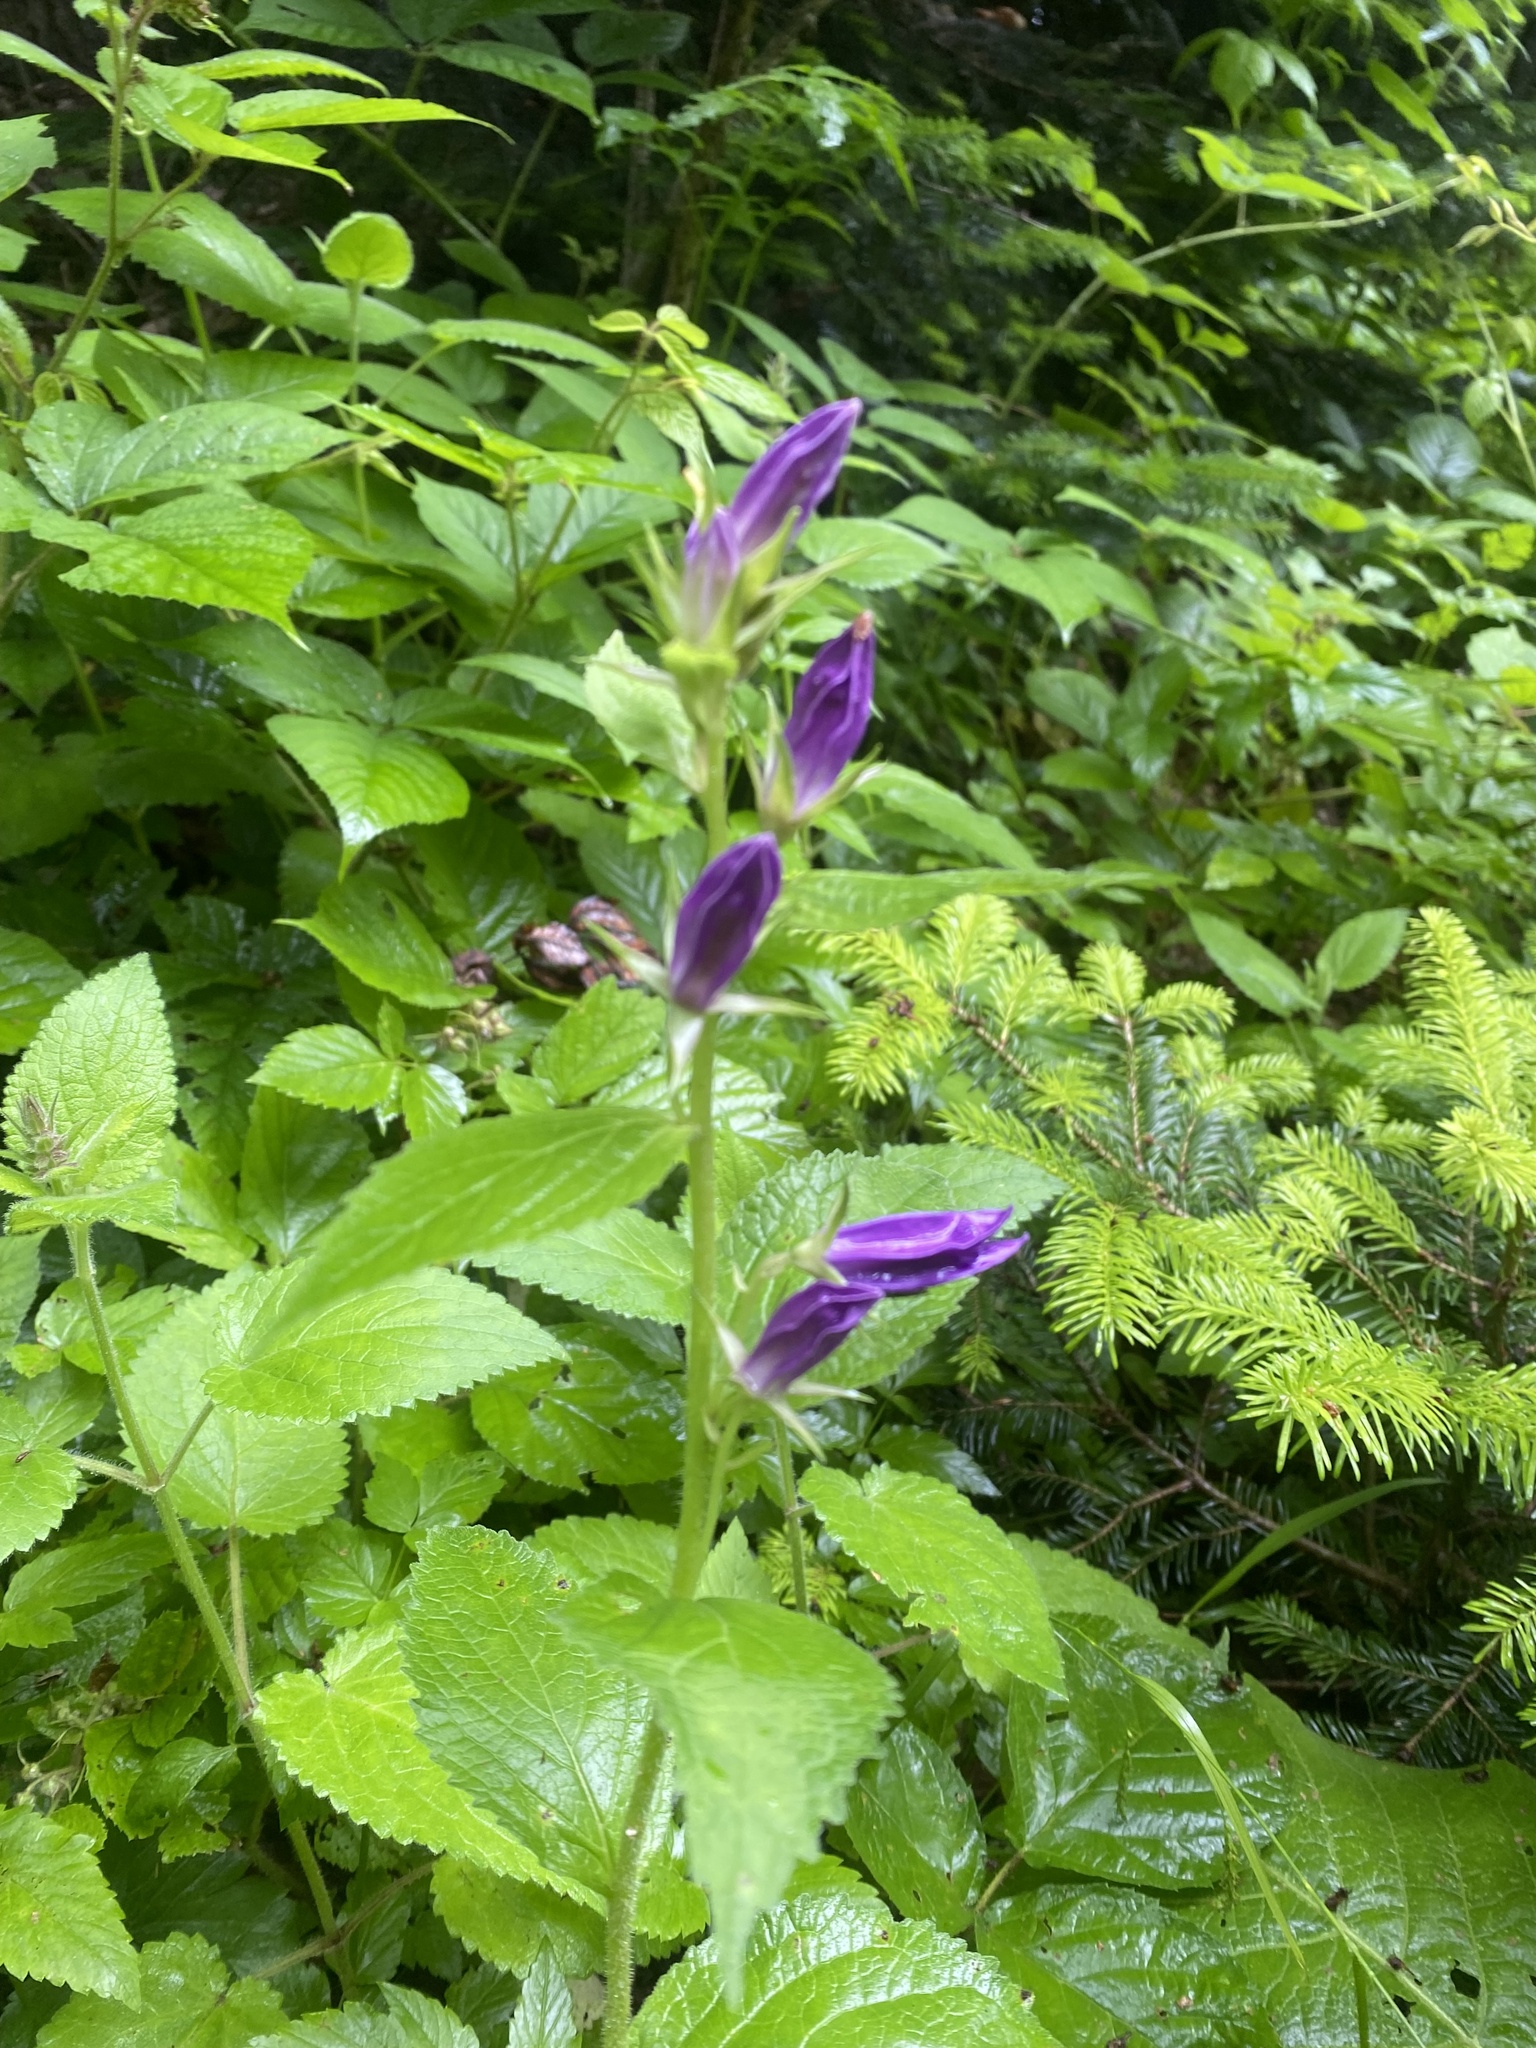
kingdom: Plantae
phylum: Tracheophyta
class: Magnoliopsida
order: Asterales
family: Campanulaceae
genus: Campanula
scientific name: Campanula latifolia
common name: Giant bellflower
